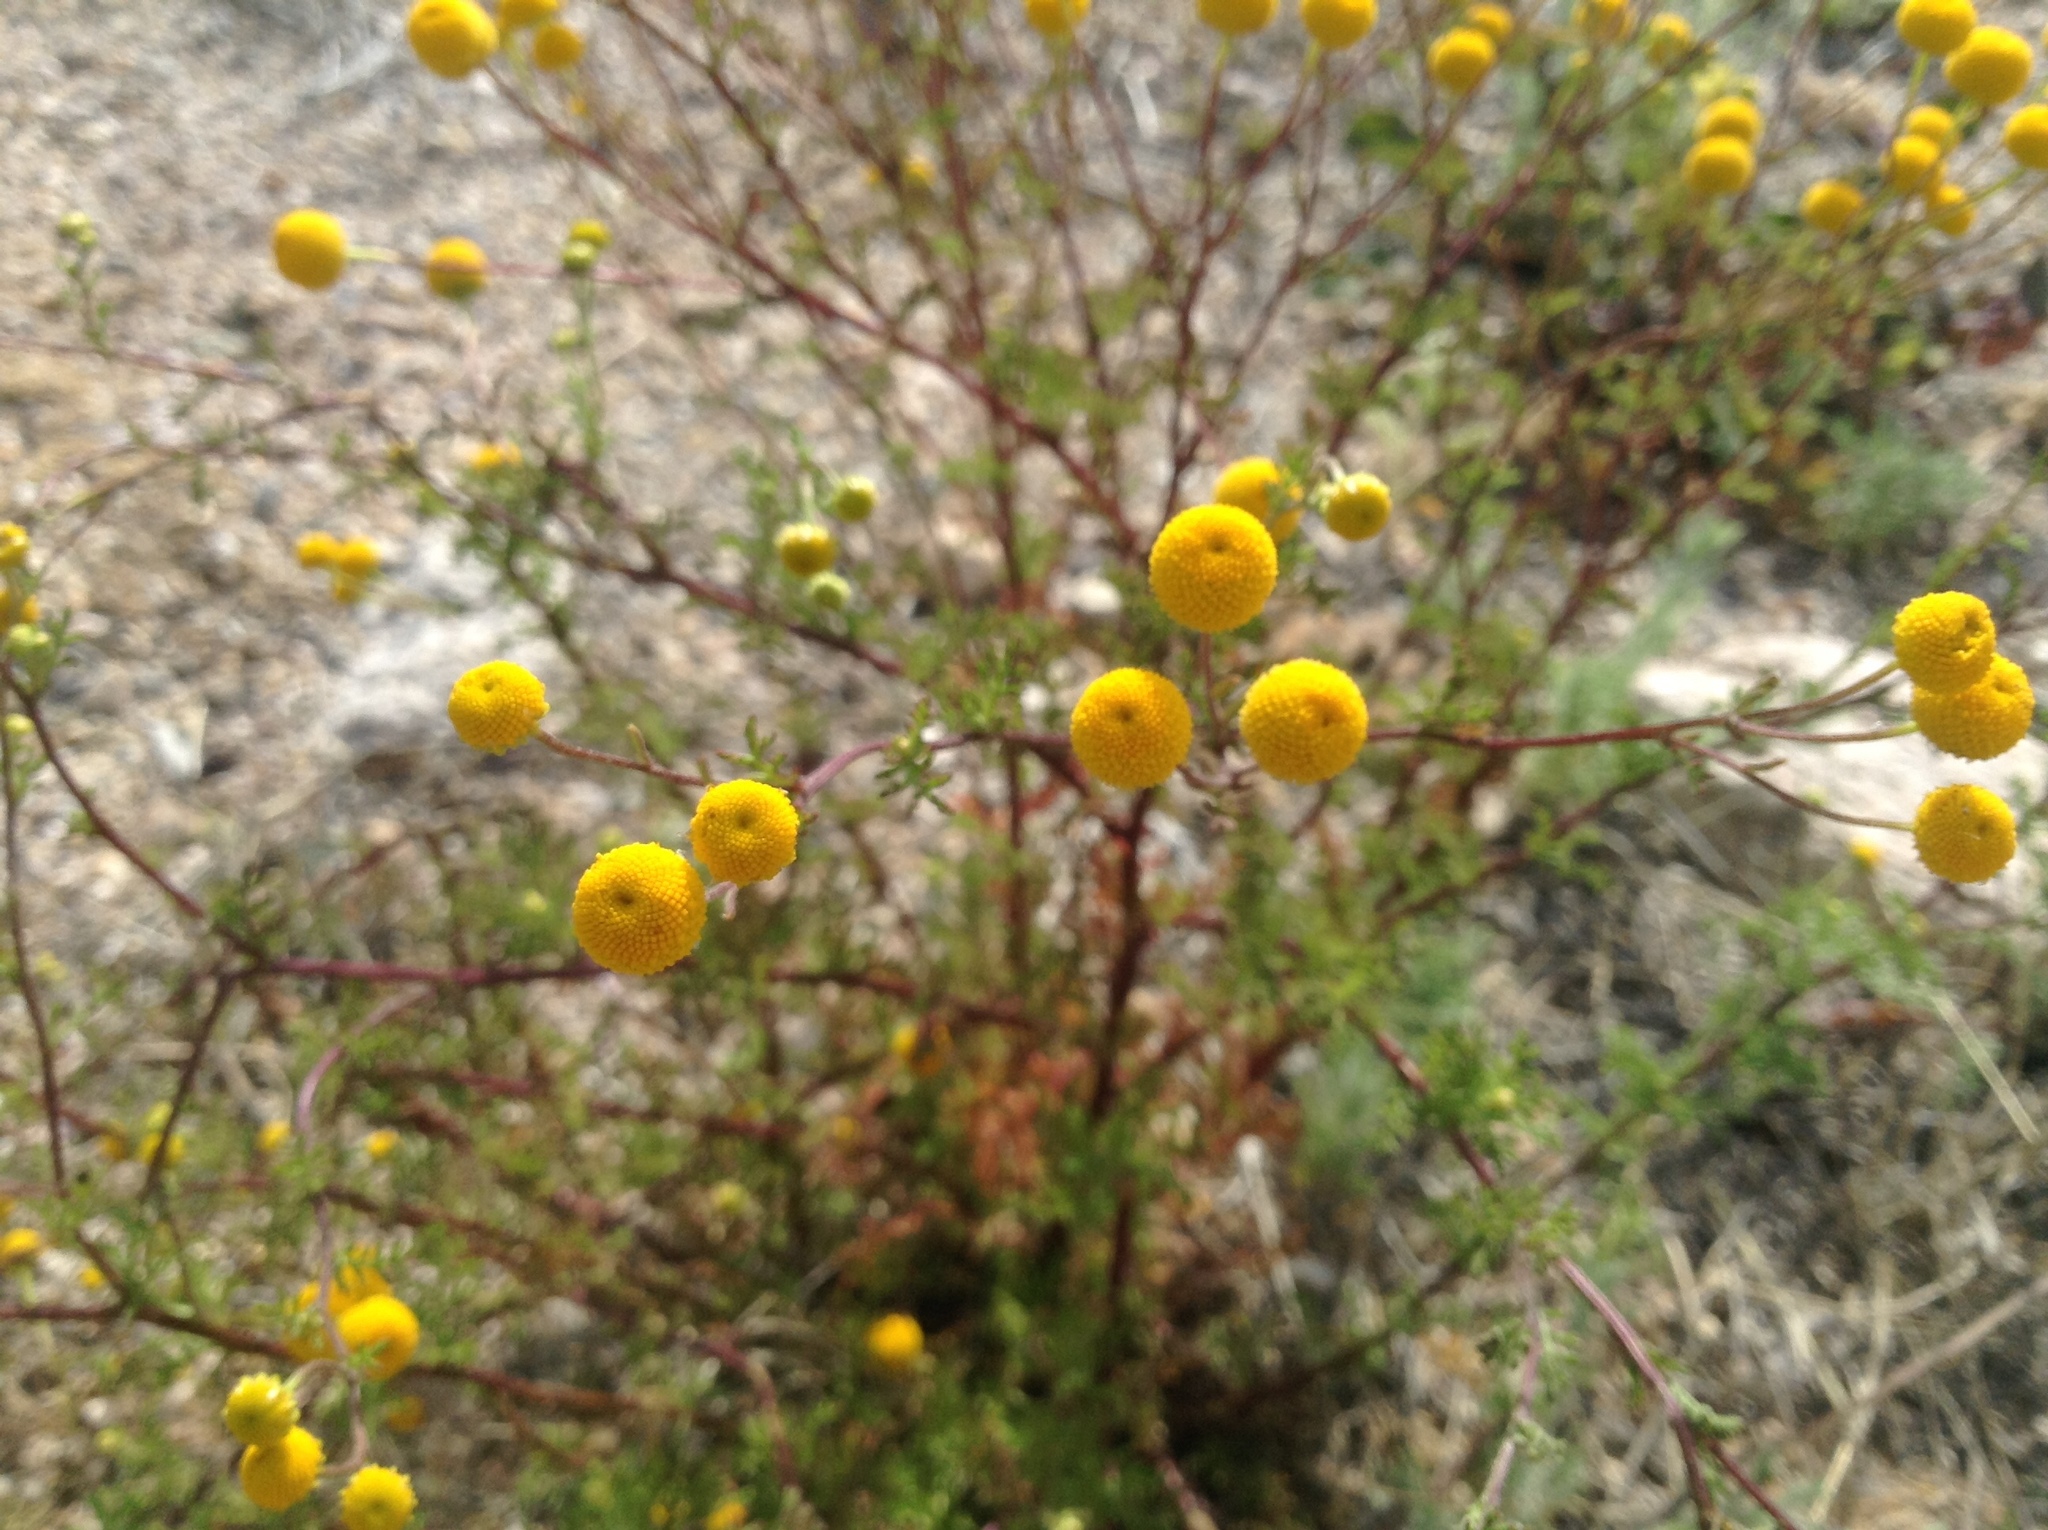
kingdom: Plantae
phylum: Tracheophyta
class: Magnoliopsida
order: Asterales
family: Asteraceae
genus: Oncosiphon
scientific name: Oncosiphon pilulifer
